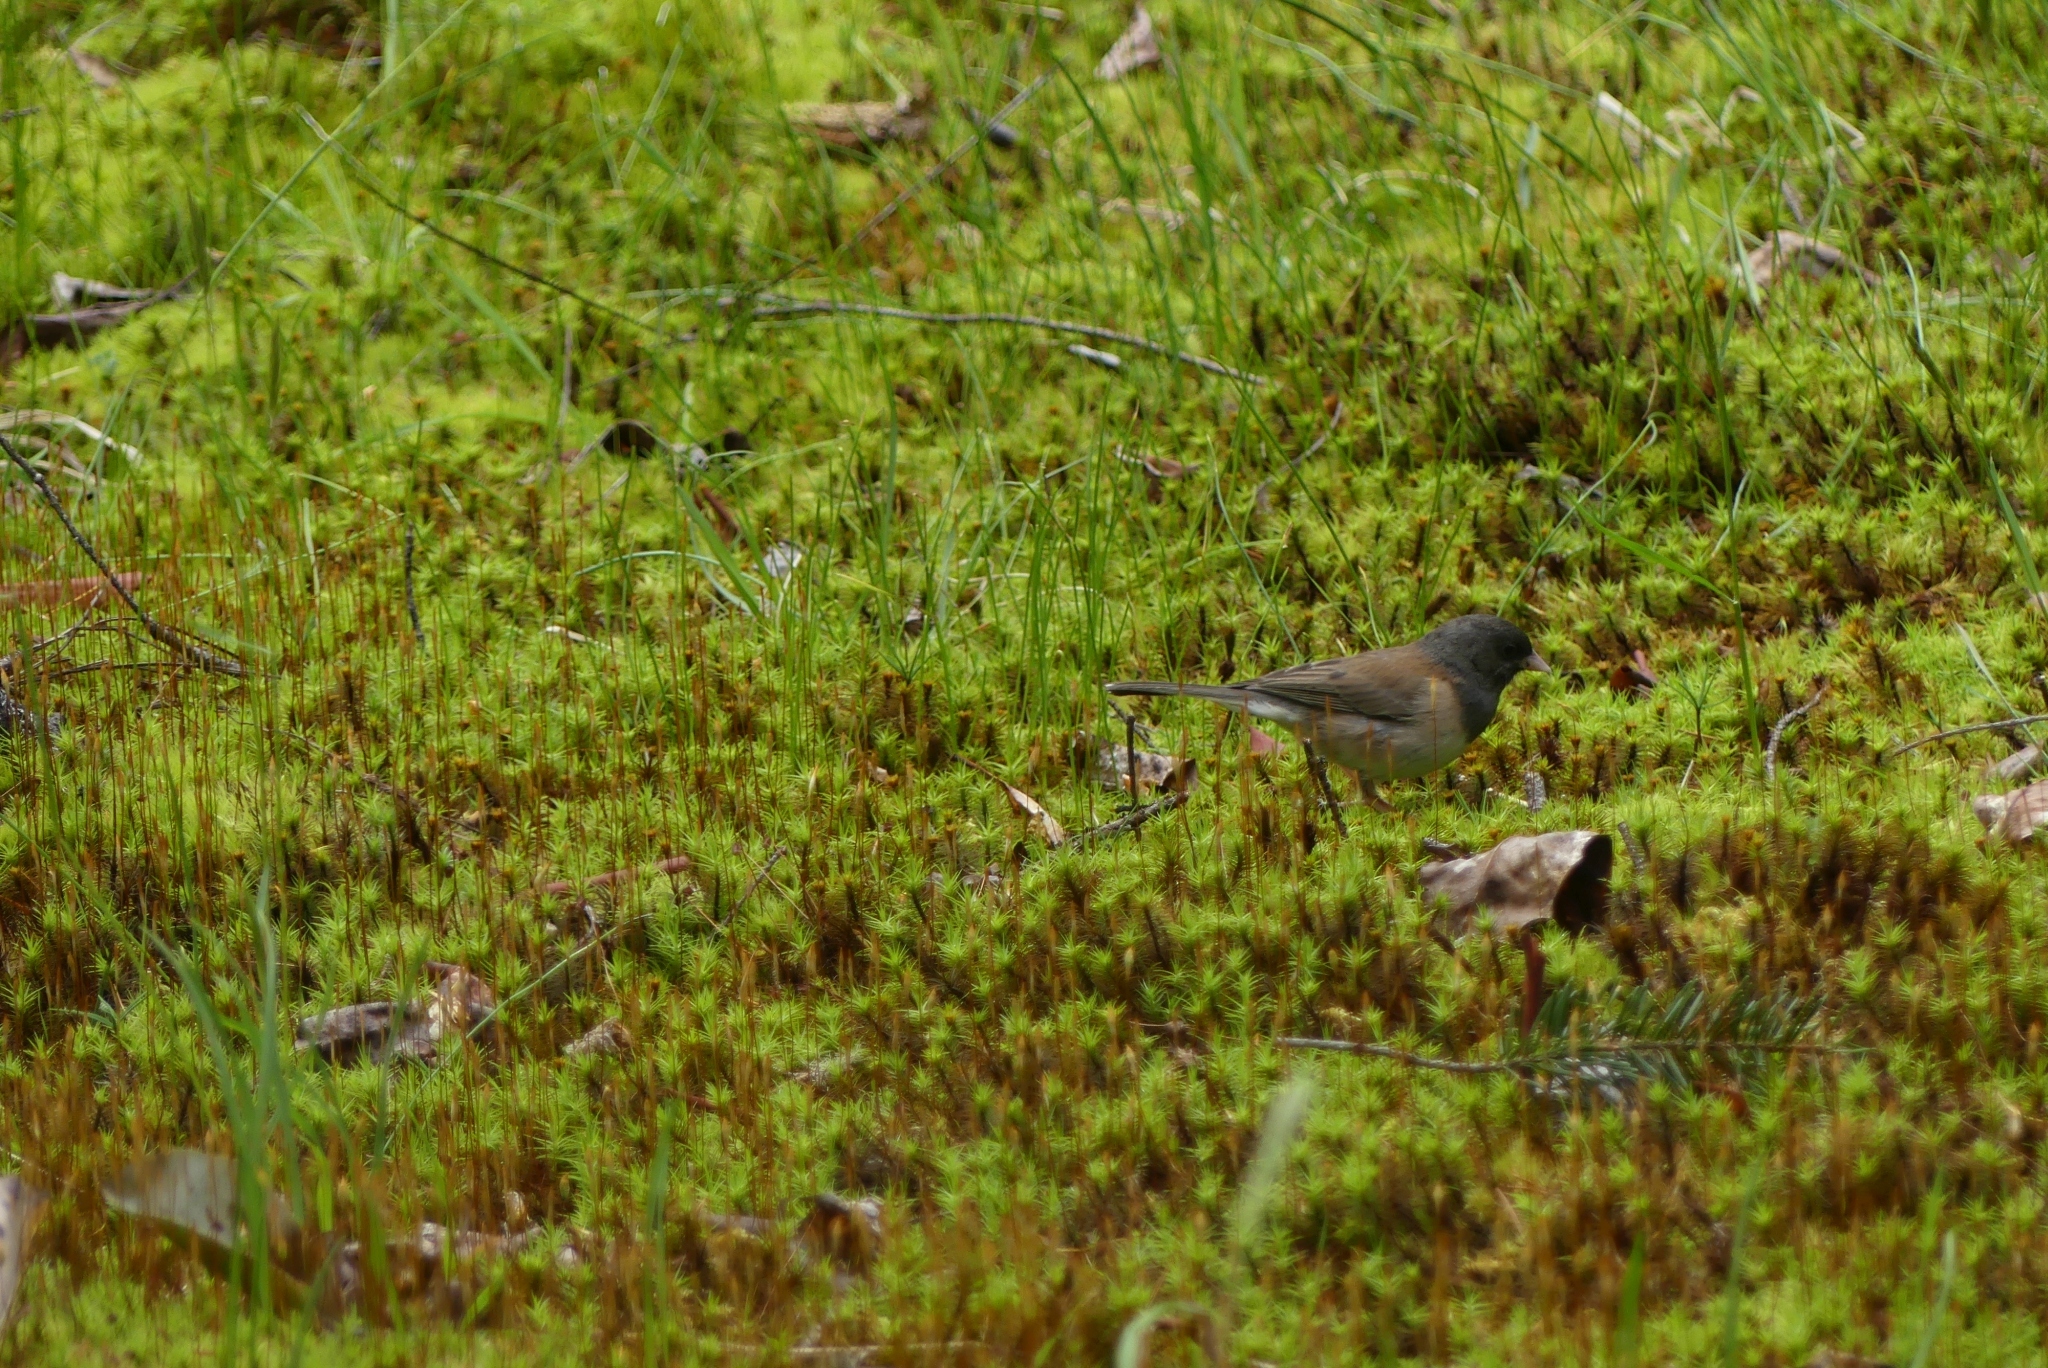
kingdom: Animalia
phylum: Chordata
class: Aves
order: Passeriformes
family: Passerellidae
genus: Junco
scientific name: Junco hyemalis
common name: Dark-eyed junco
